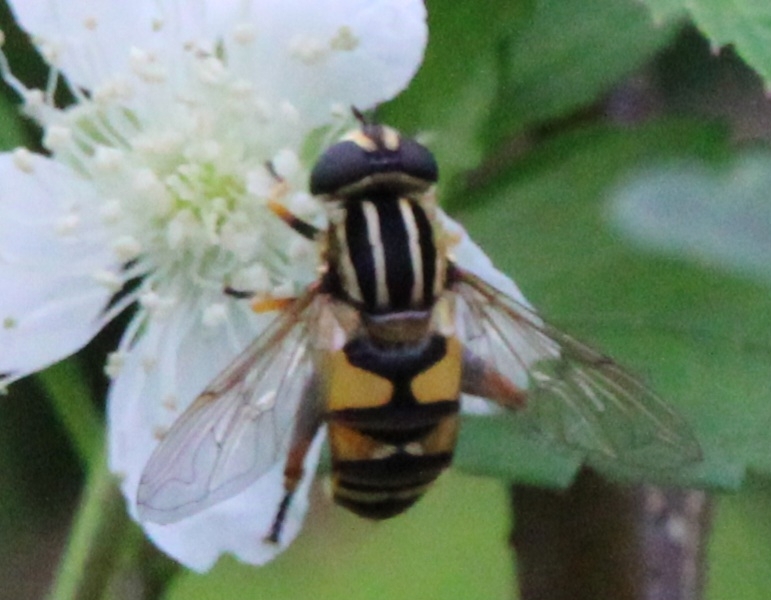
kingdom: Animalia
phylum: Arthropoda
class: Insecta
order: Diptera
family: Syrphidae
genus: Helophilus
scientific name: Helophilus pendulus
